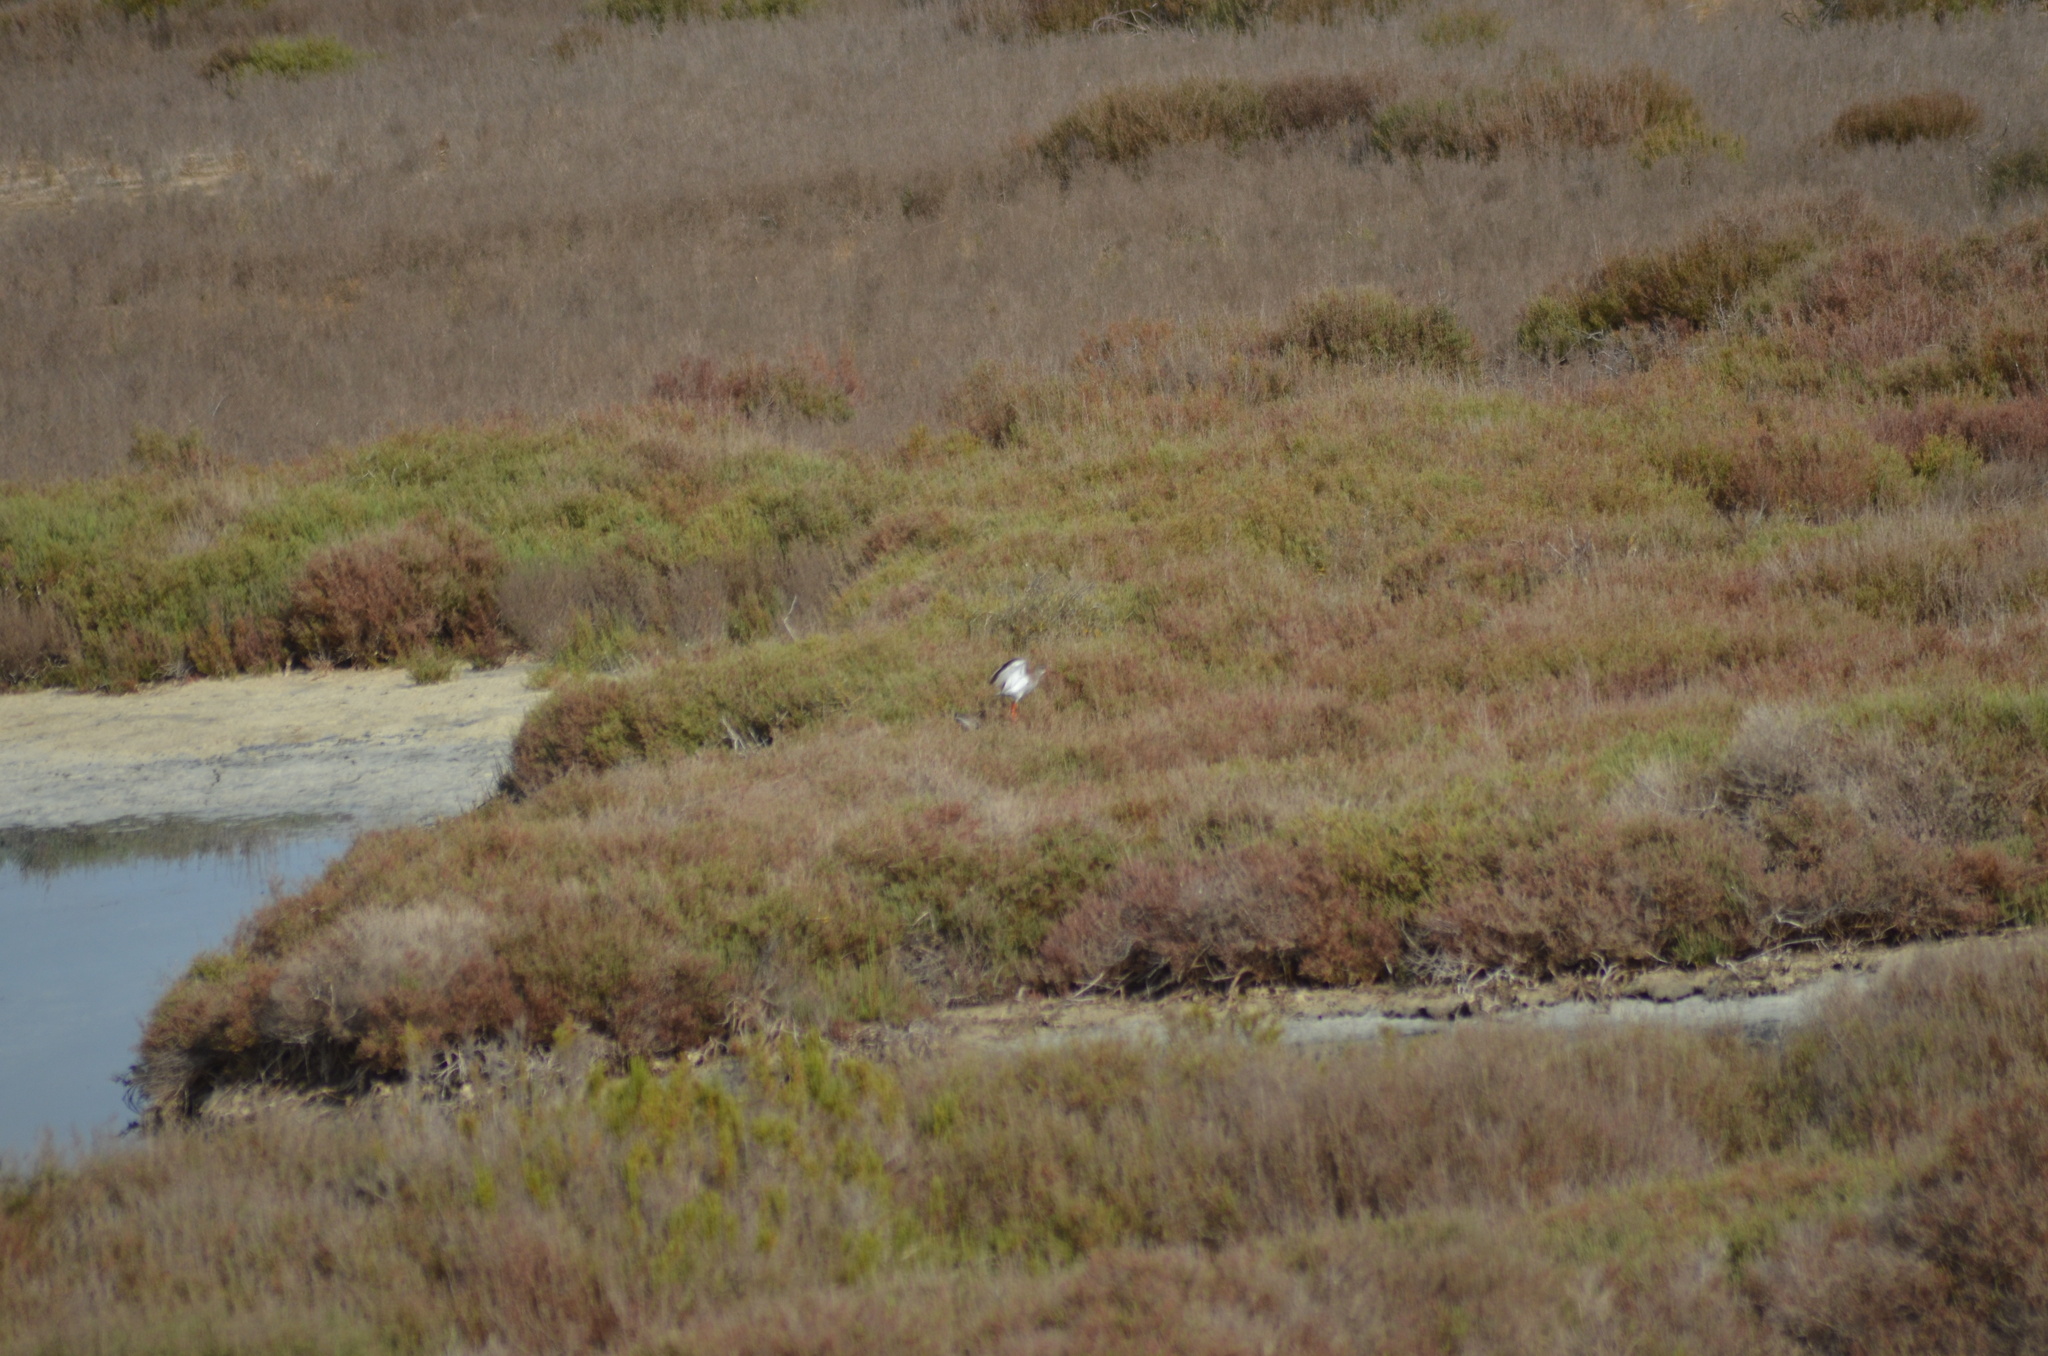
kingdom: Animalia
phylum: Chordata
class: Aves
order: Charadriiformes
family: Scolopacidae
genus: Tringa
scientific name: Tringa totanus
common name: Common redshank
